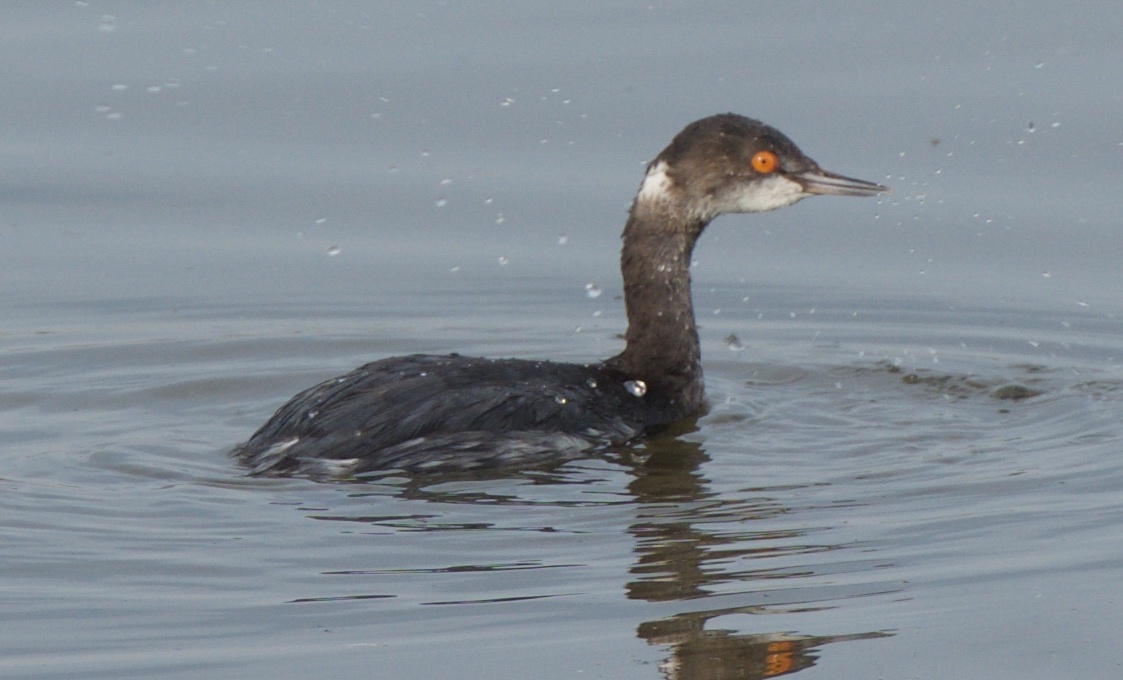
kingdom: Animalia
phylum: Chordata
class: Aves
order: Podicipediformes
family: Podicipedidae
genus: Podiceps
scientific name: Podiceps nigricollis
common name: Black-necked grebe
